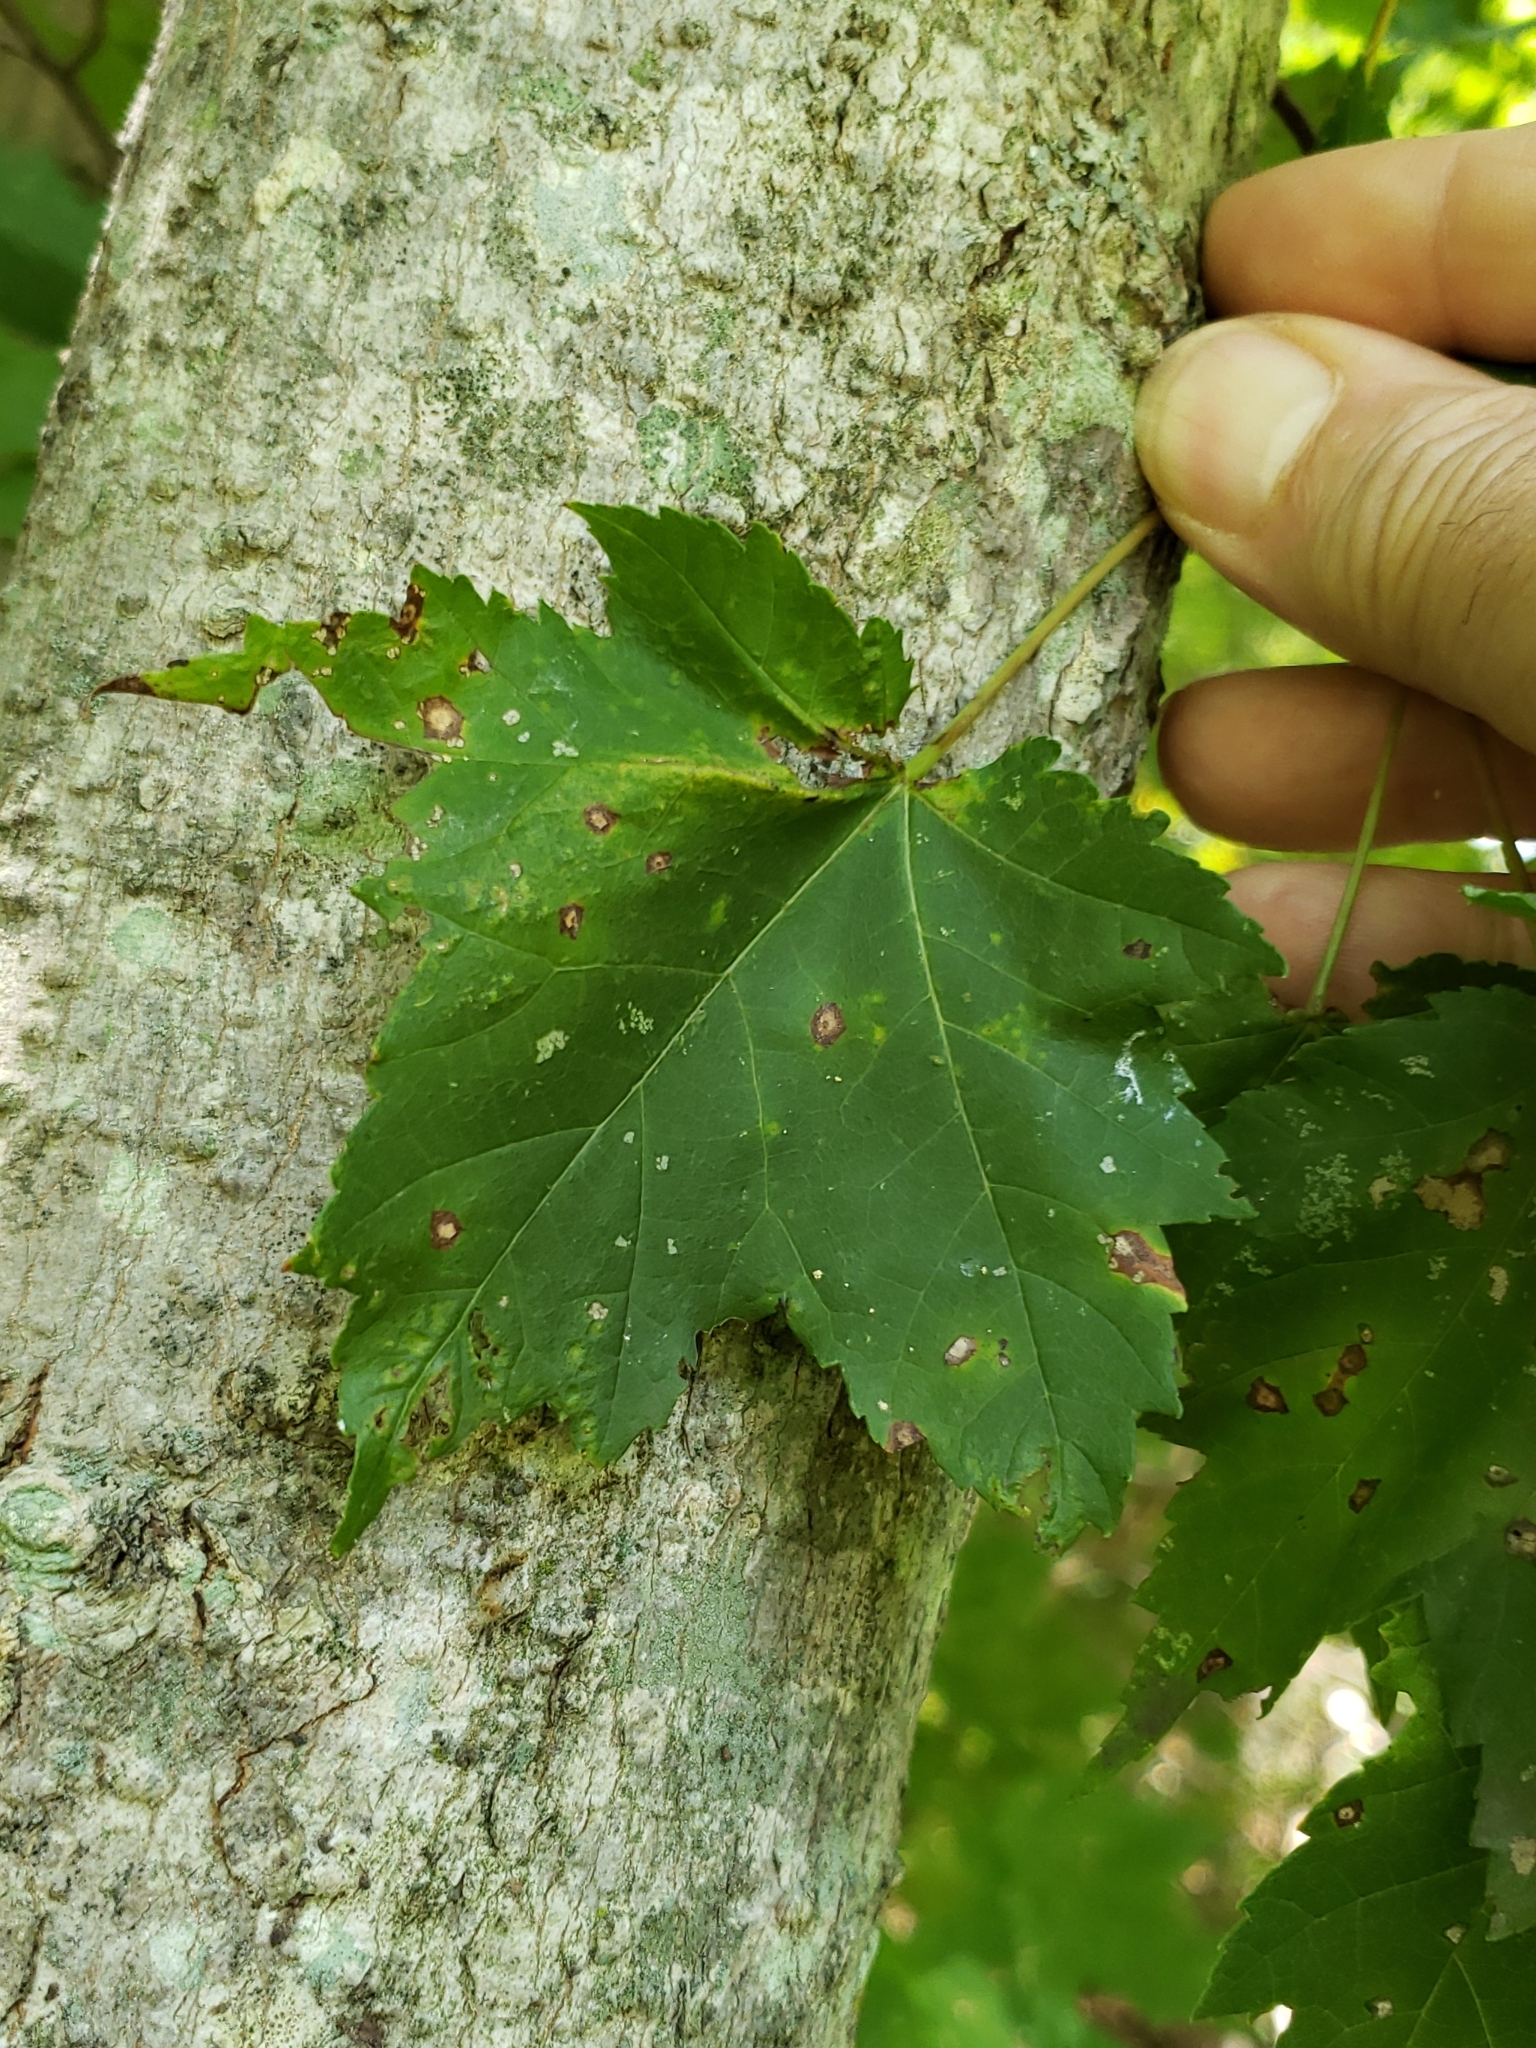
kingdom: Animalia
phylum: Arthropoda
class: Insecta
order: Lepidoptera
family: Nepticulidae
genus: Glaucolepis
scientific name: Glaucolepis saccharella
